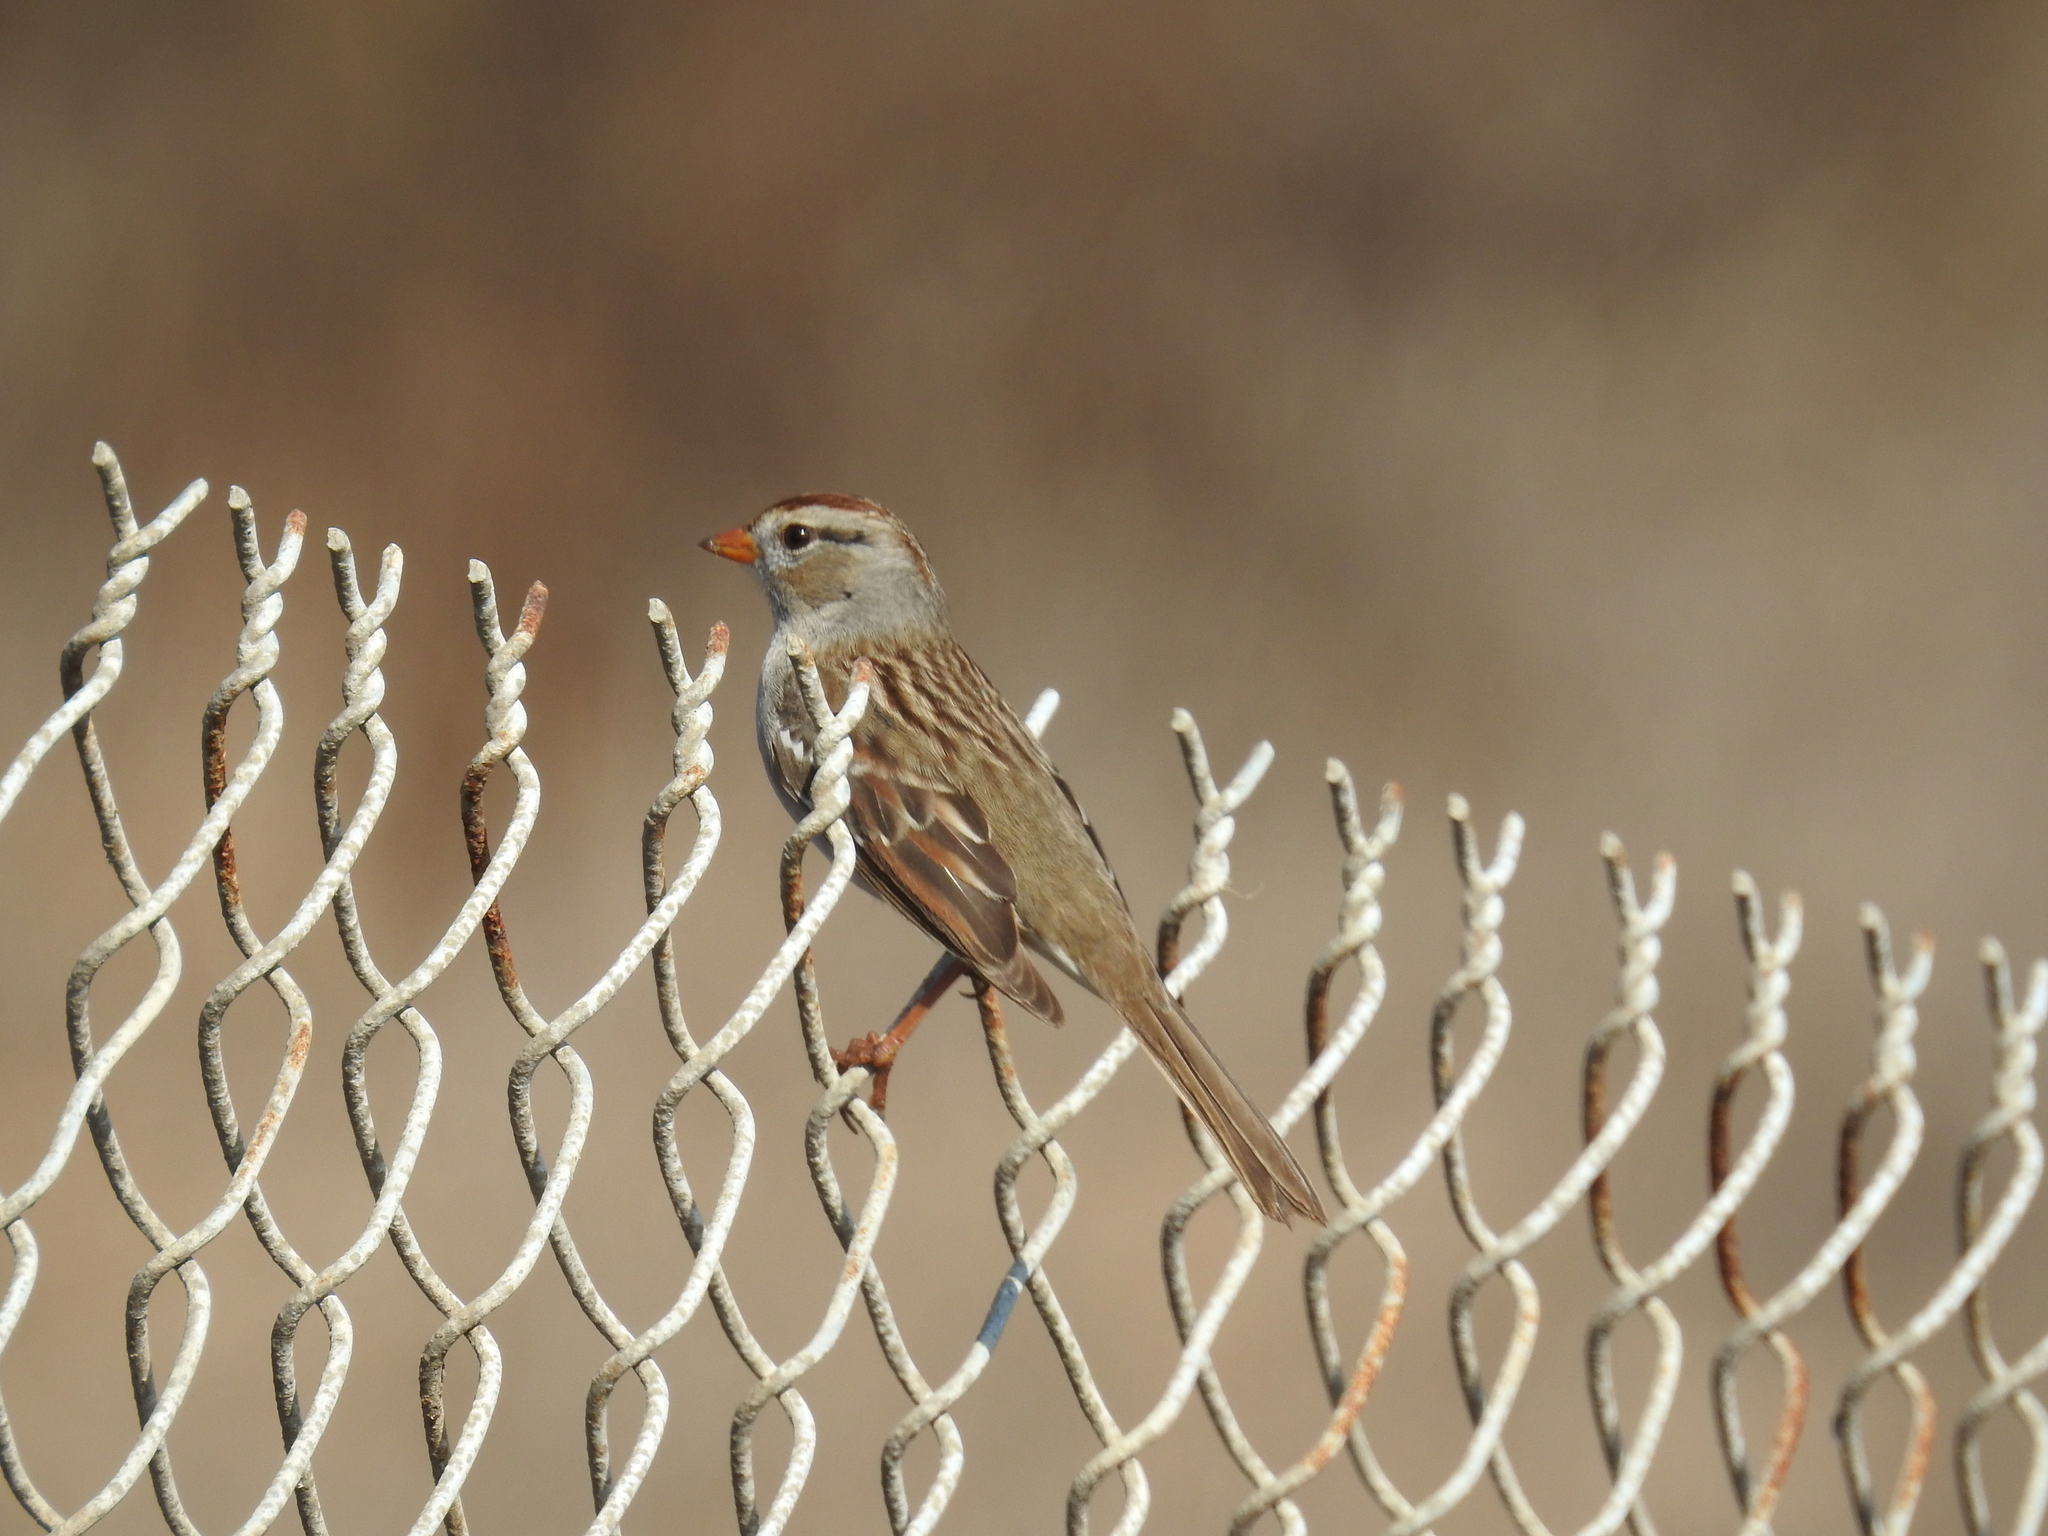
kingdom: Animalia
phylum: Chordata
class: Aves
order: Passeriformes
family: Passerellidae
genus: Zonotrichia
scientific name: Zonotrichia leucophrys
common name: White-crowned sparrow
